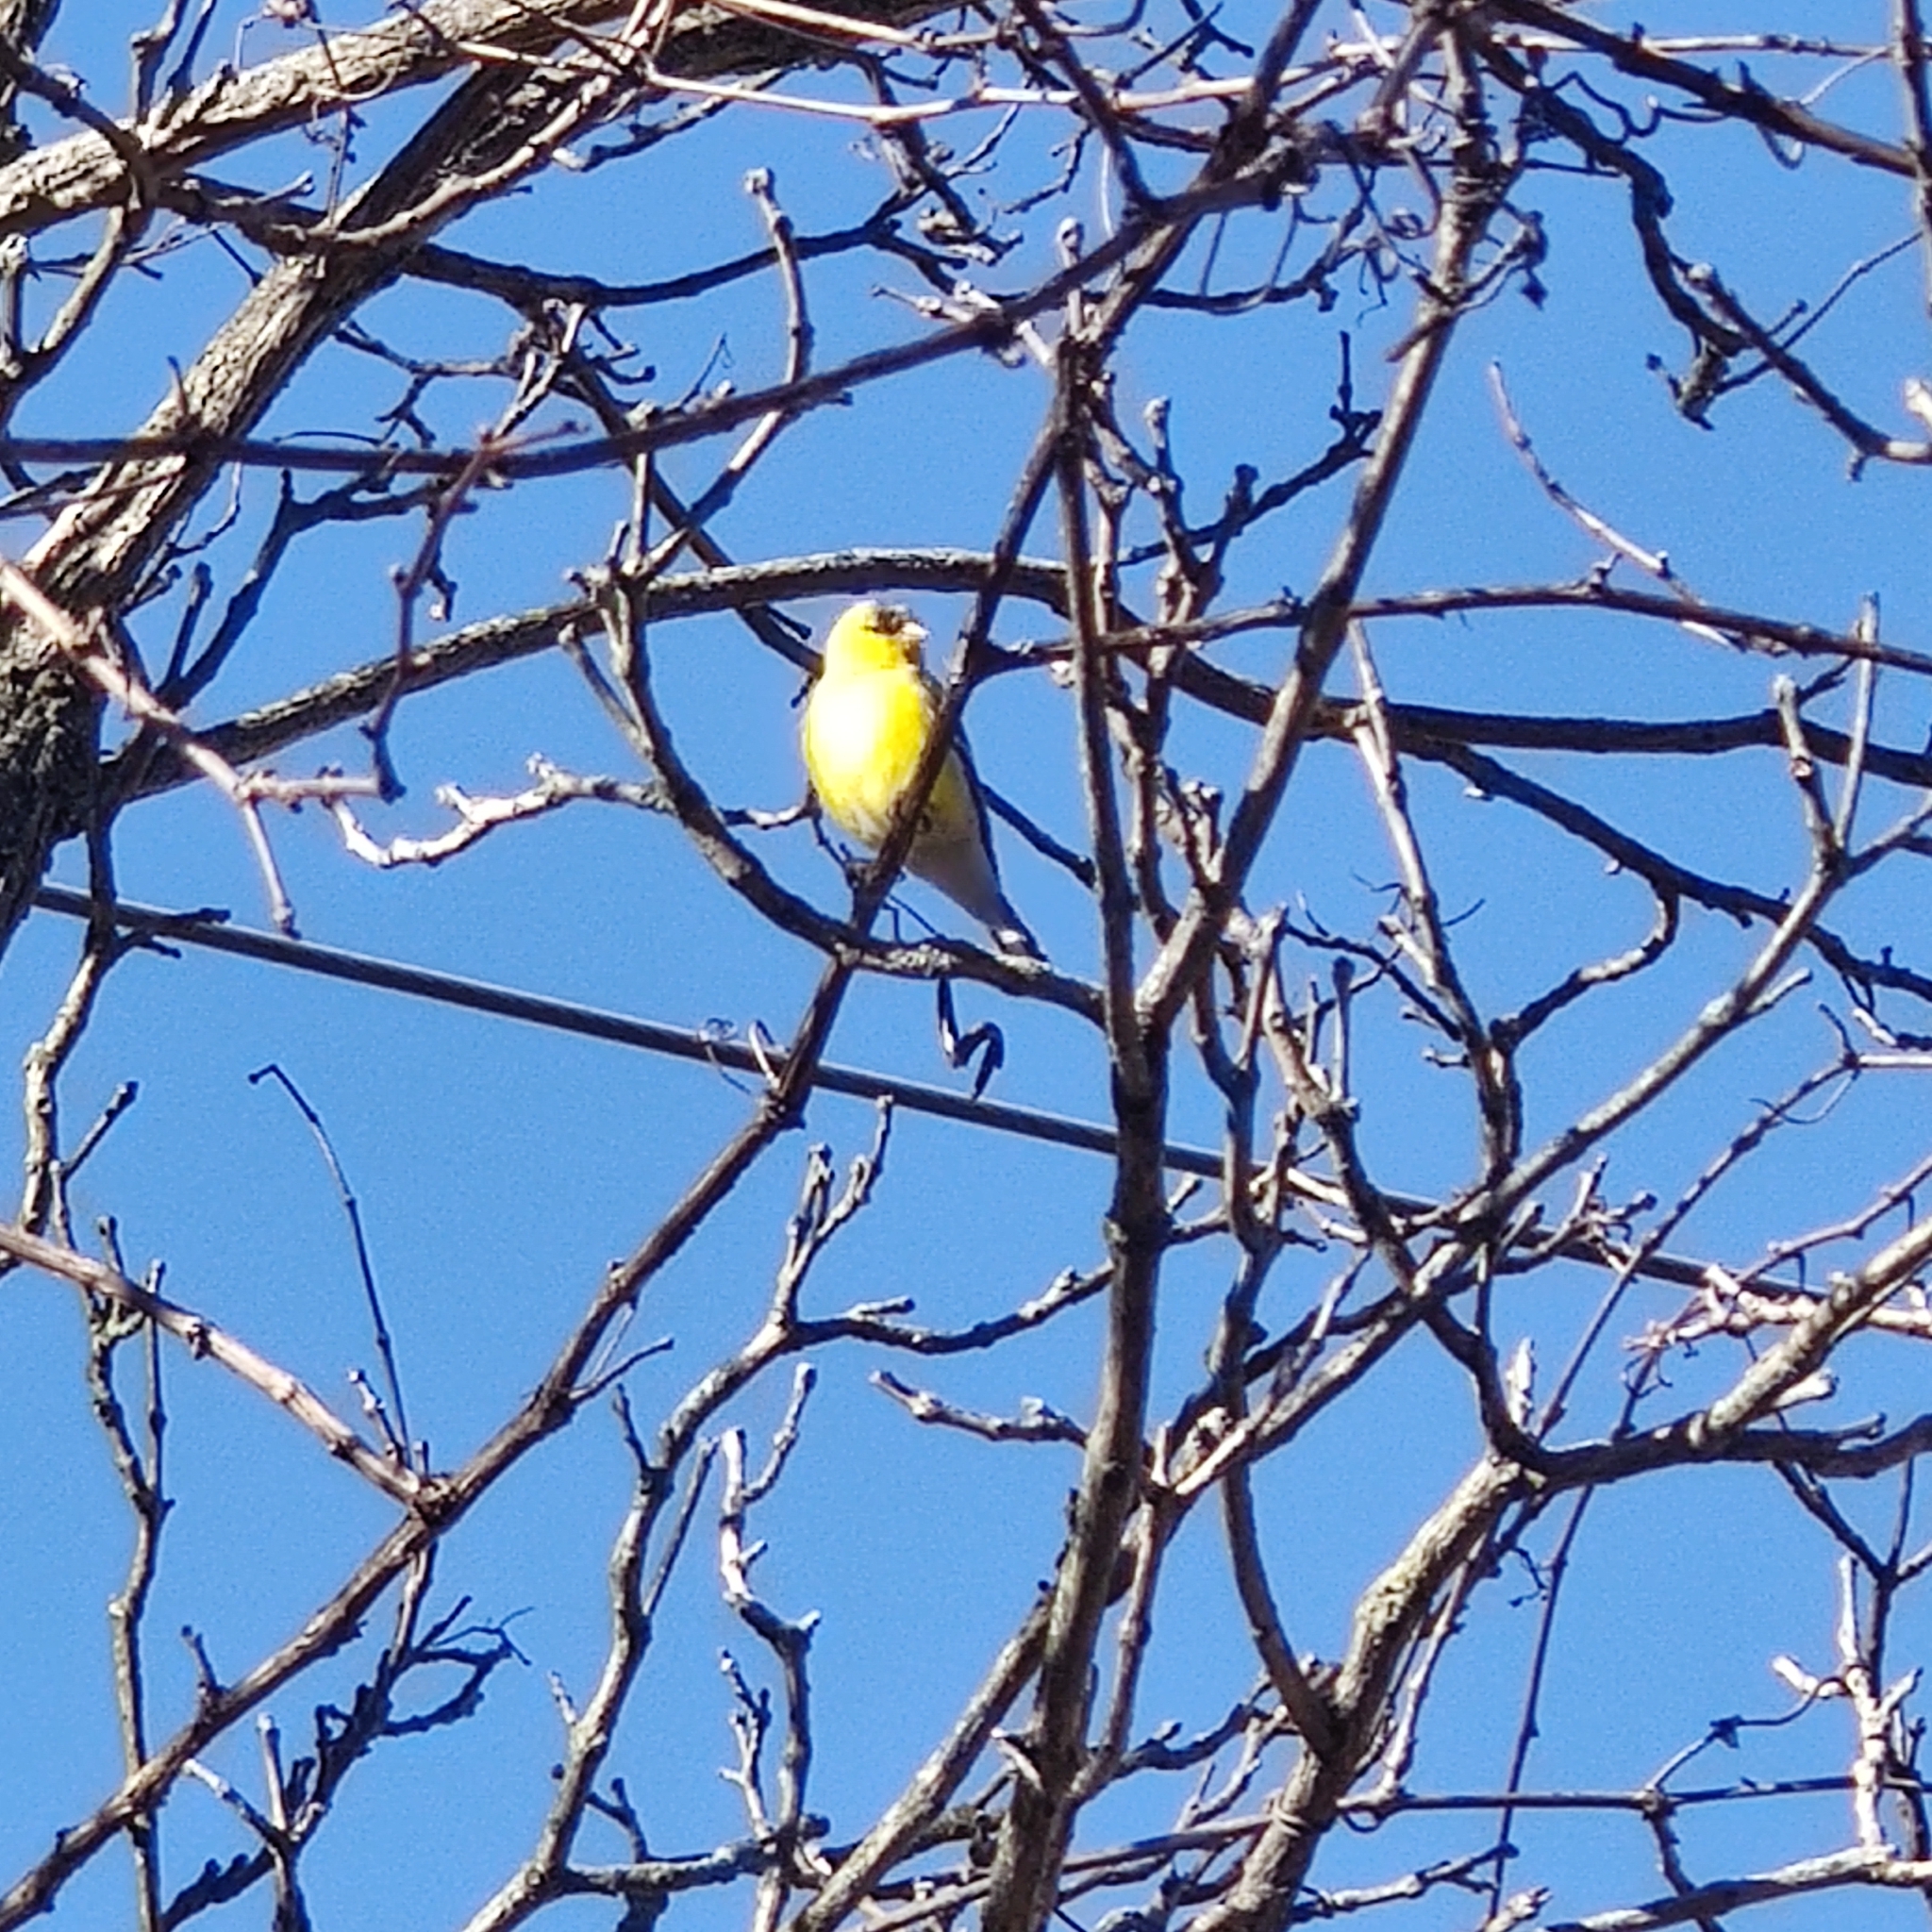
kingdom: Animalia
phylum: Chordata
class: Aves
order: Passeriformes
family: Fringillidae
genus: Spinus
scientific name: Spinus tristis
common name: American goldfinch
